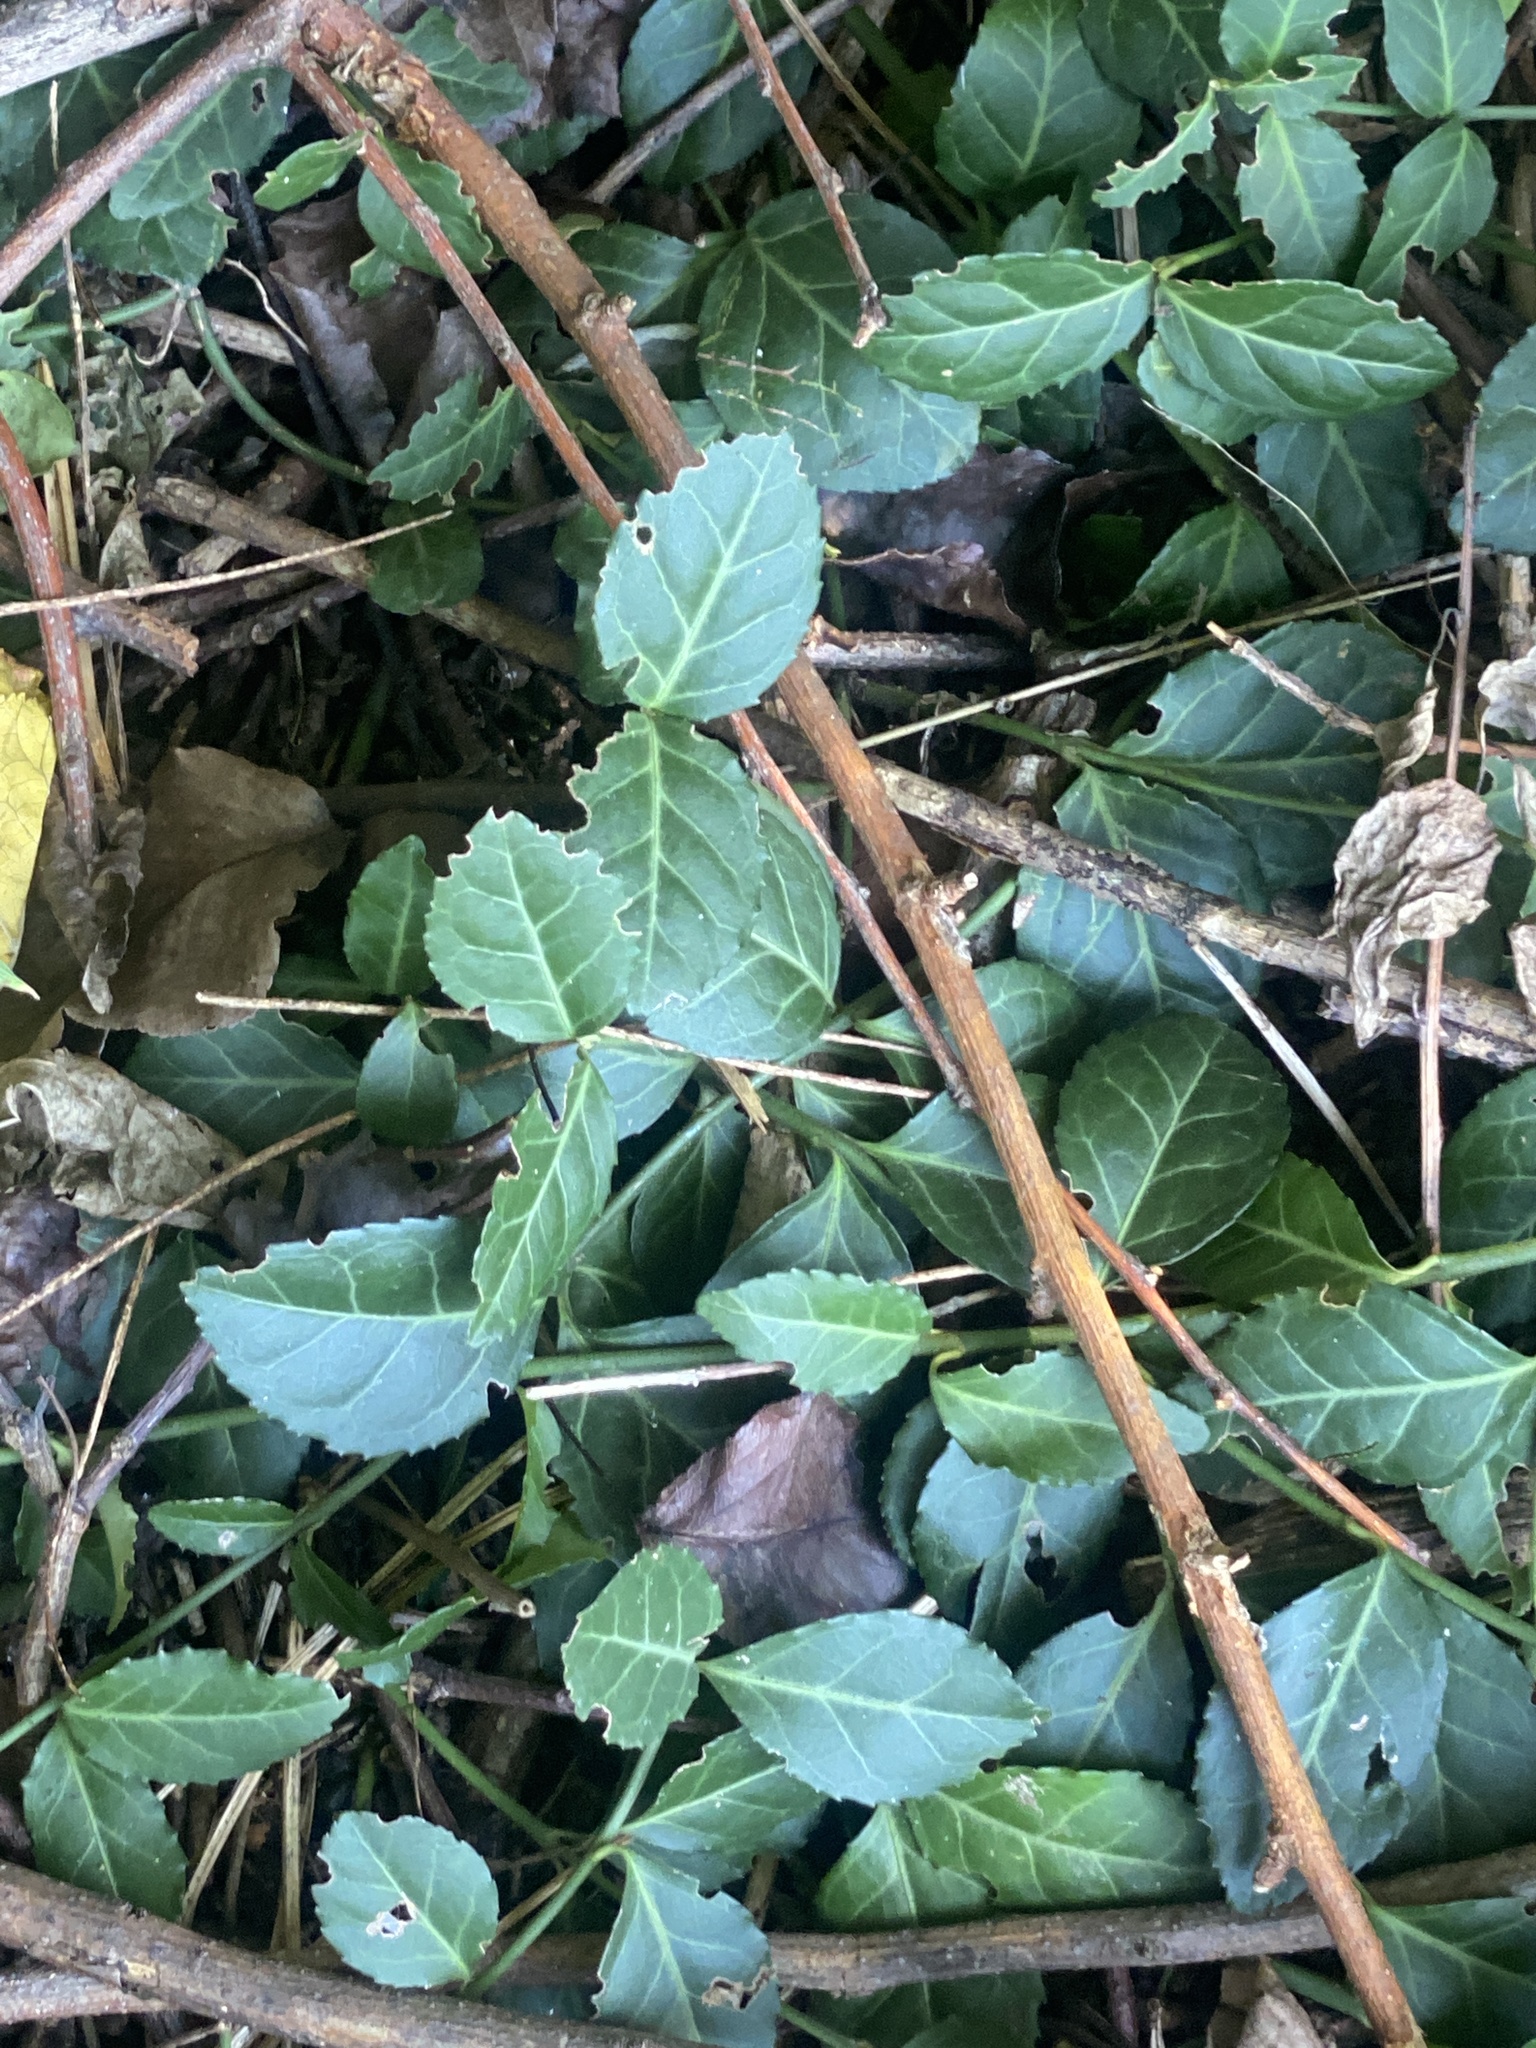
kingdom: Plantae
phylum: Tracheophyta
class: Magnoliopsida
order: Celastrales
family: Celastraceae
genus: Euonymus
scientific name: Euonymus fortunei
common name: Climbing euonymus
